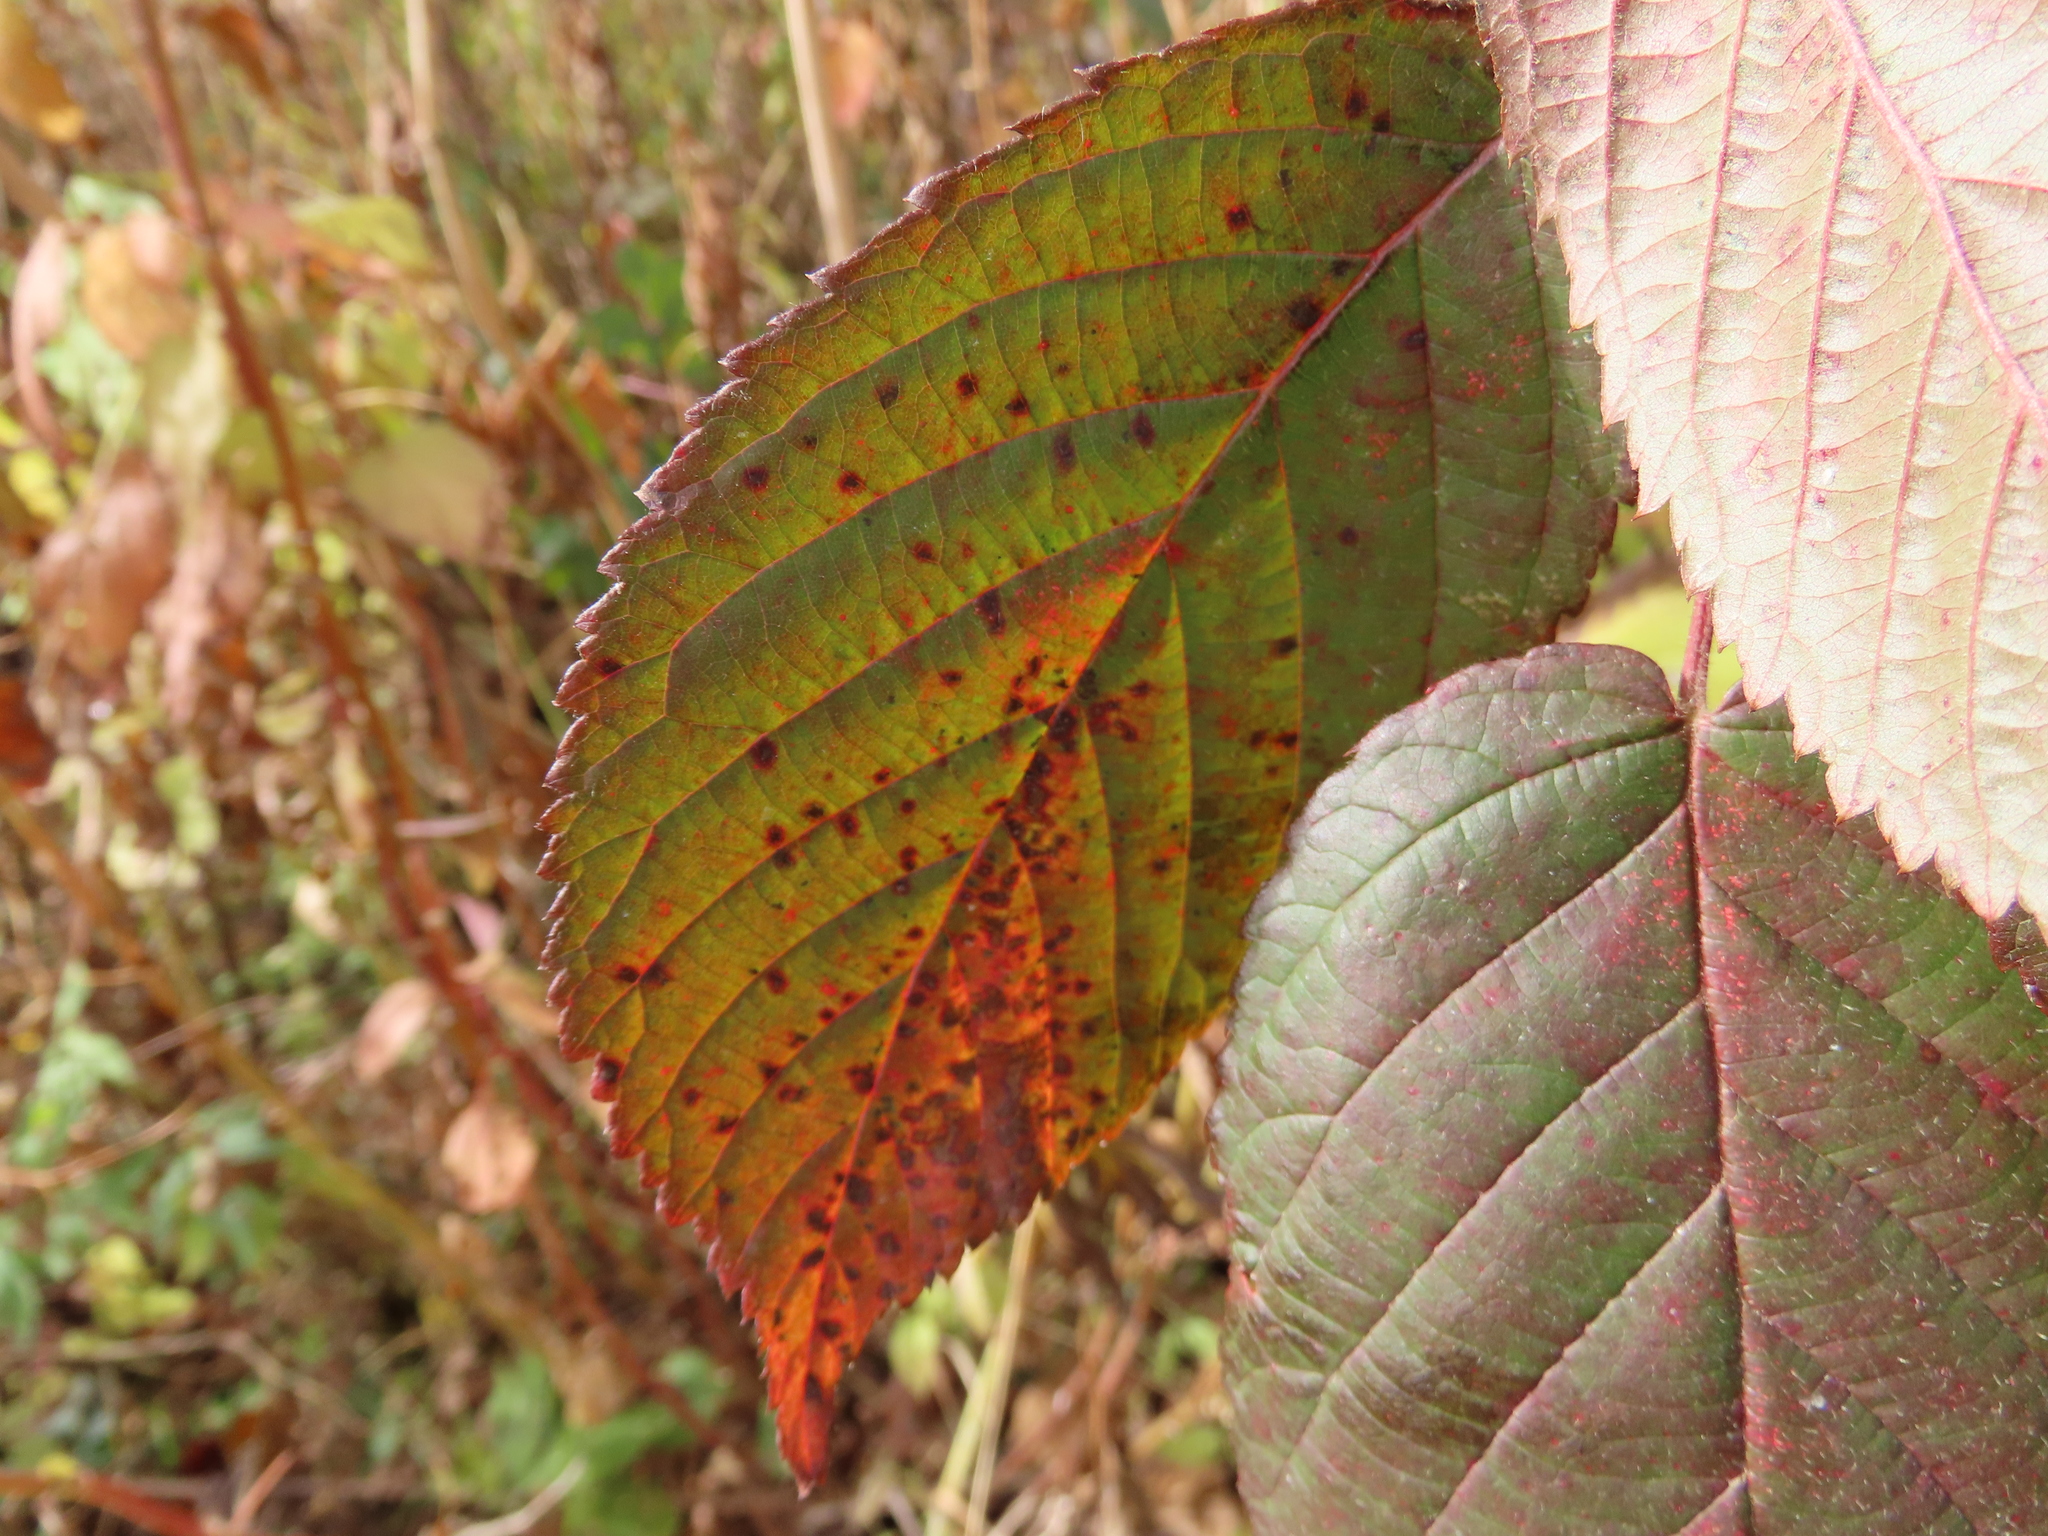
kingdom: Plantae
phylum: Tracheophyta
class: Magnoliopsida
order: Rosales
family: Rosaceae
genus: Rubus
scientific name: Rubus allegheniensis
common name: Allegheny blackberry
